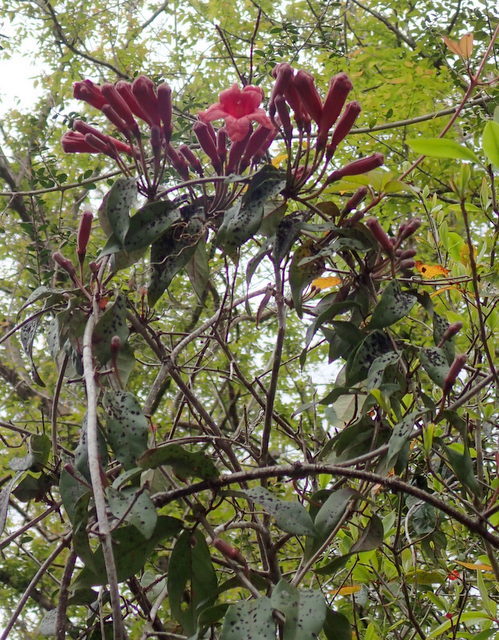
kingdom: Plantae
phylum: Tracheophyta
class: Magnoliopsida
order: Lamiales
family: Bignoniaceae
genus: Bignonia
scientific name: Bignonia capreolata
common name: Crossvine
